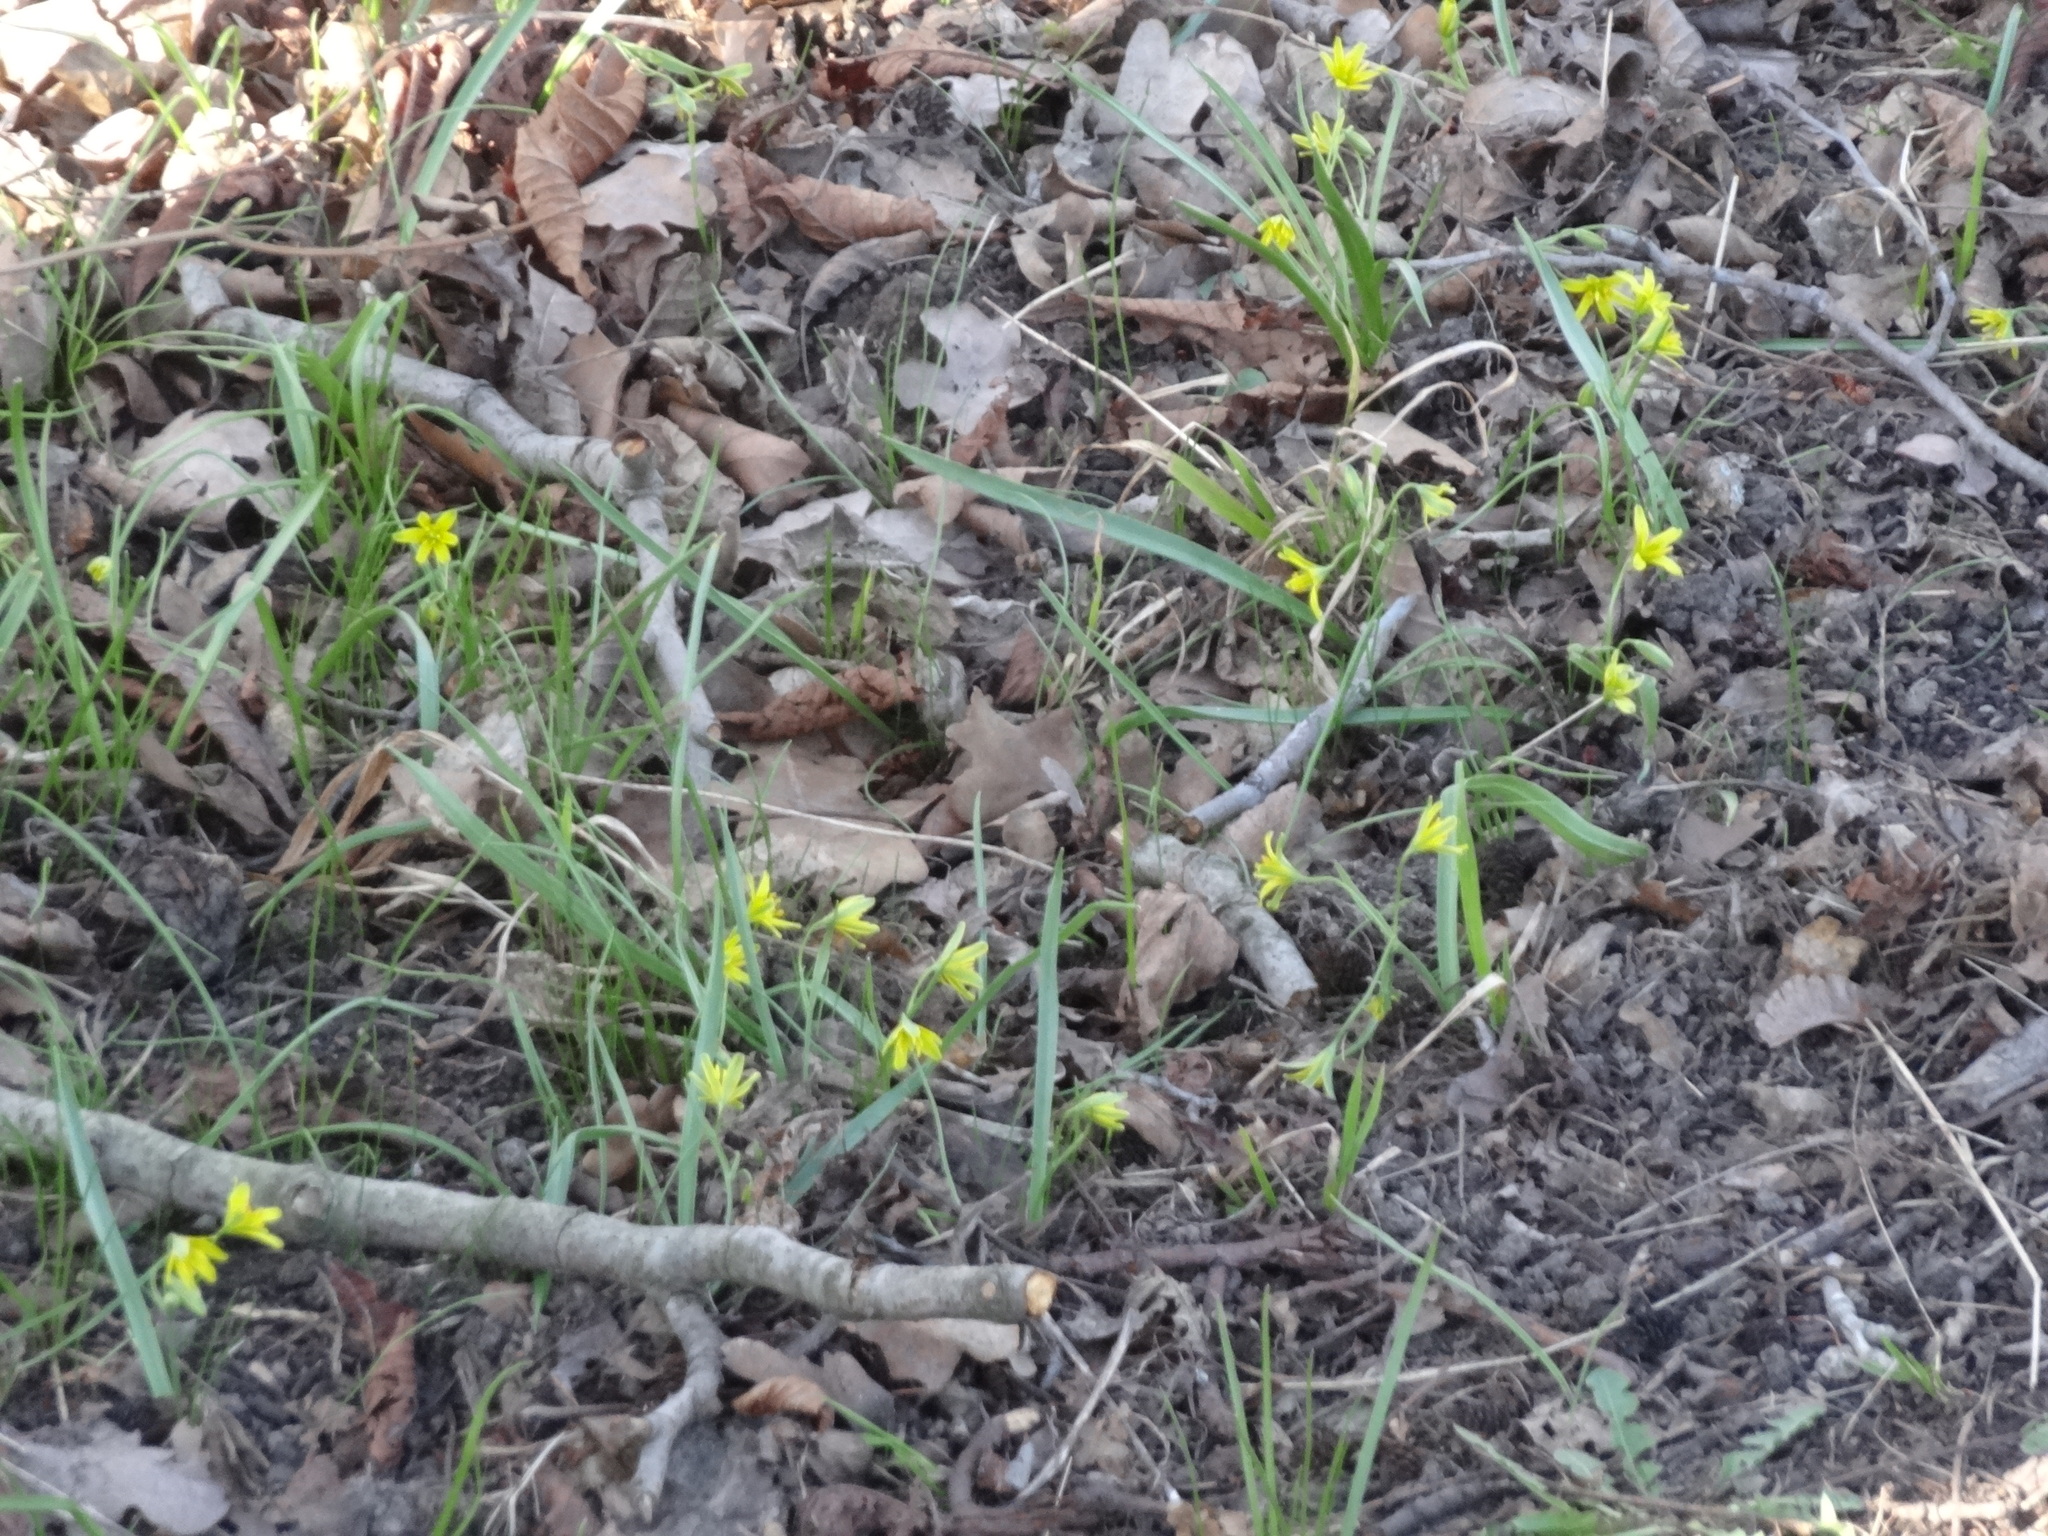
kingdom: Plantae
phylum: Tracheophyta
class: Liliopsida
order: Liliales
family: Liliaceae
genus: Gagea
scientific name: Gagea lutea
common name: Yellow star-of-bethlehem
